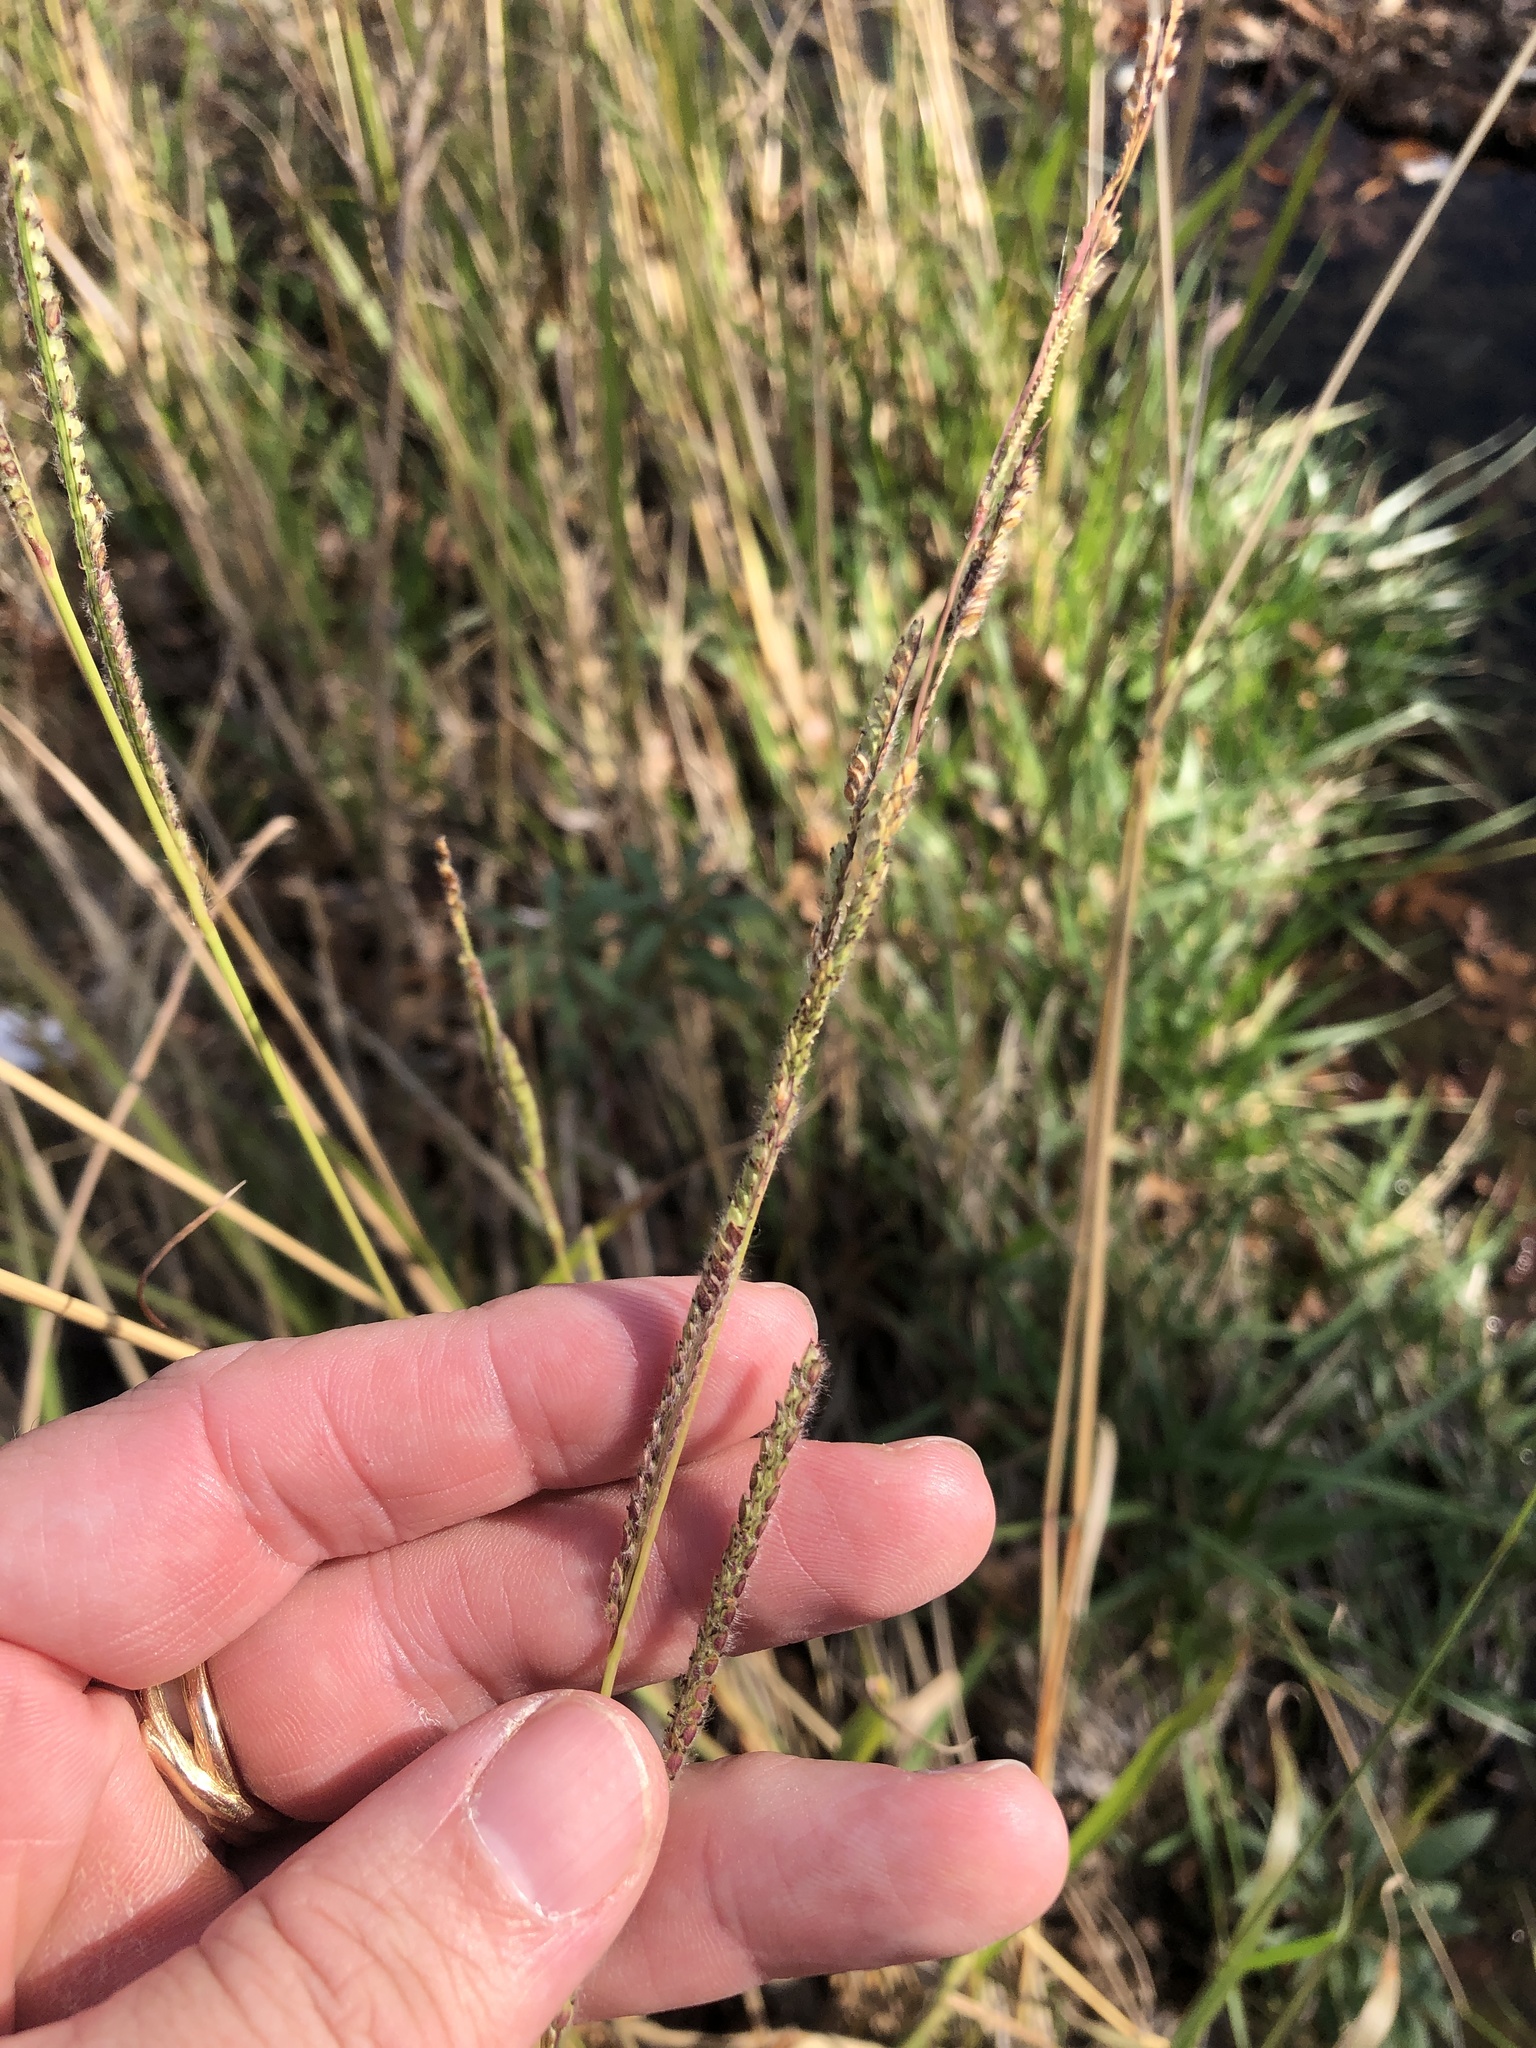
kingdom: Plantae
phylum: Tracheophyta
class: Liliopsida
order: Poales
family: Poaceae
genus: Paspalum
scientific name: Paspalum urvillei
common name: Vasey's grass
